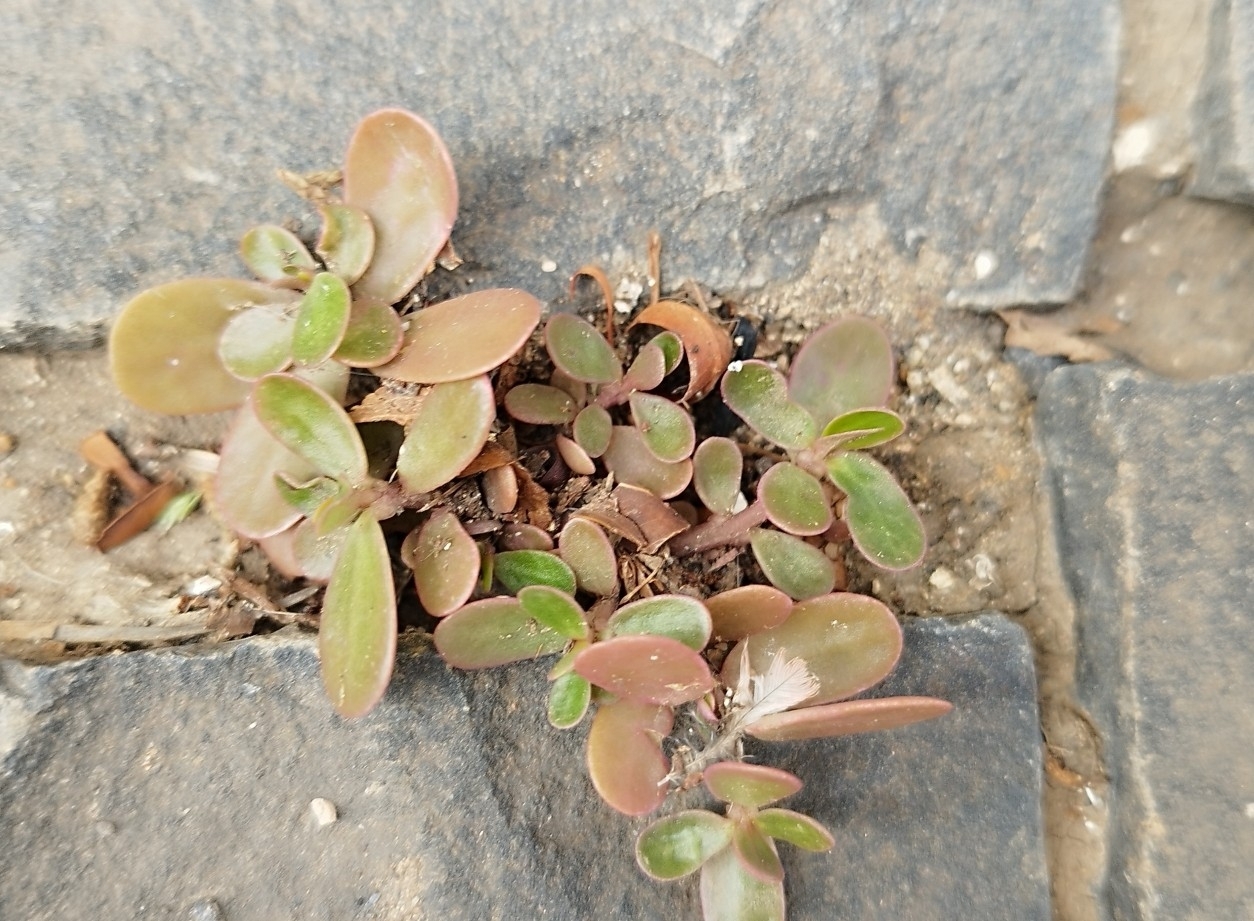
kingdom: Plantae
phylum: Tracheophyta
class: Magnoliopsida
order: Caryophyllales
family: Portulacaceae
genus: Portulaca
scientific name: Portulaca oleracea
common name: Common purslane
